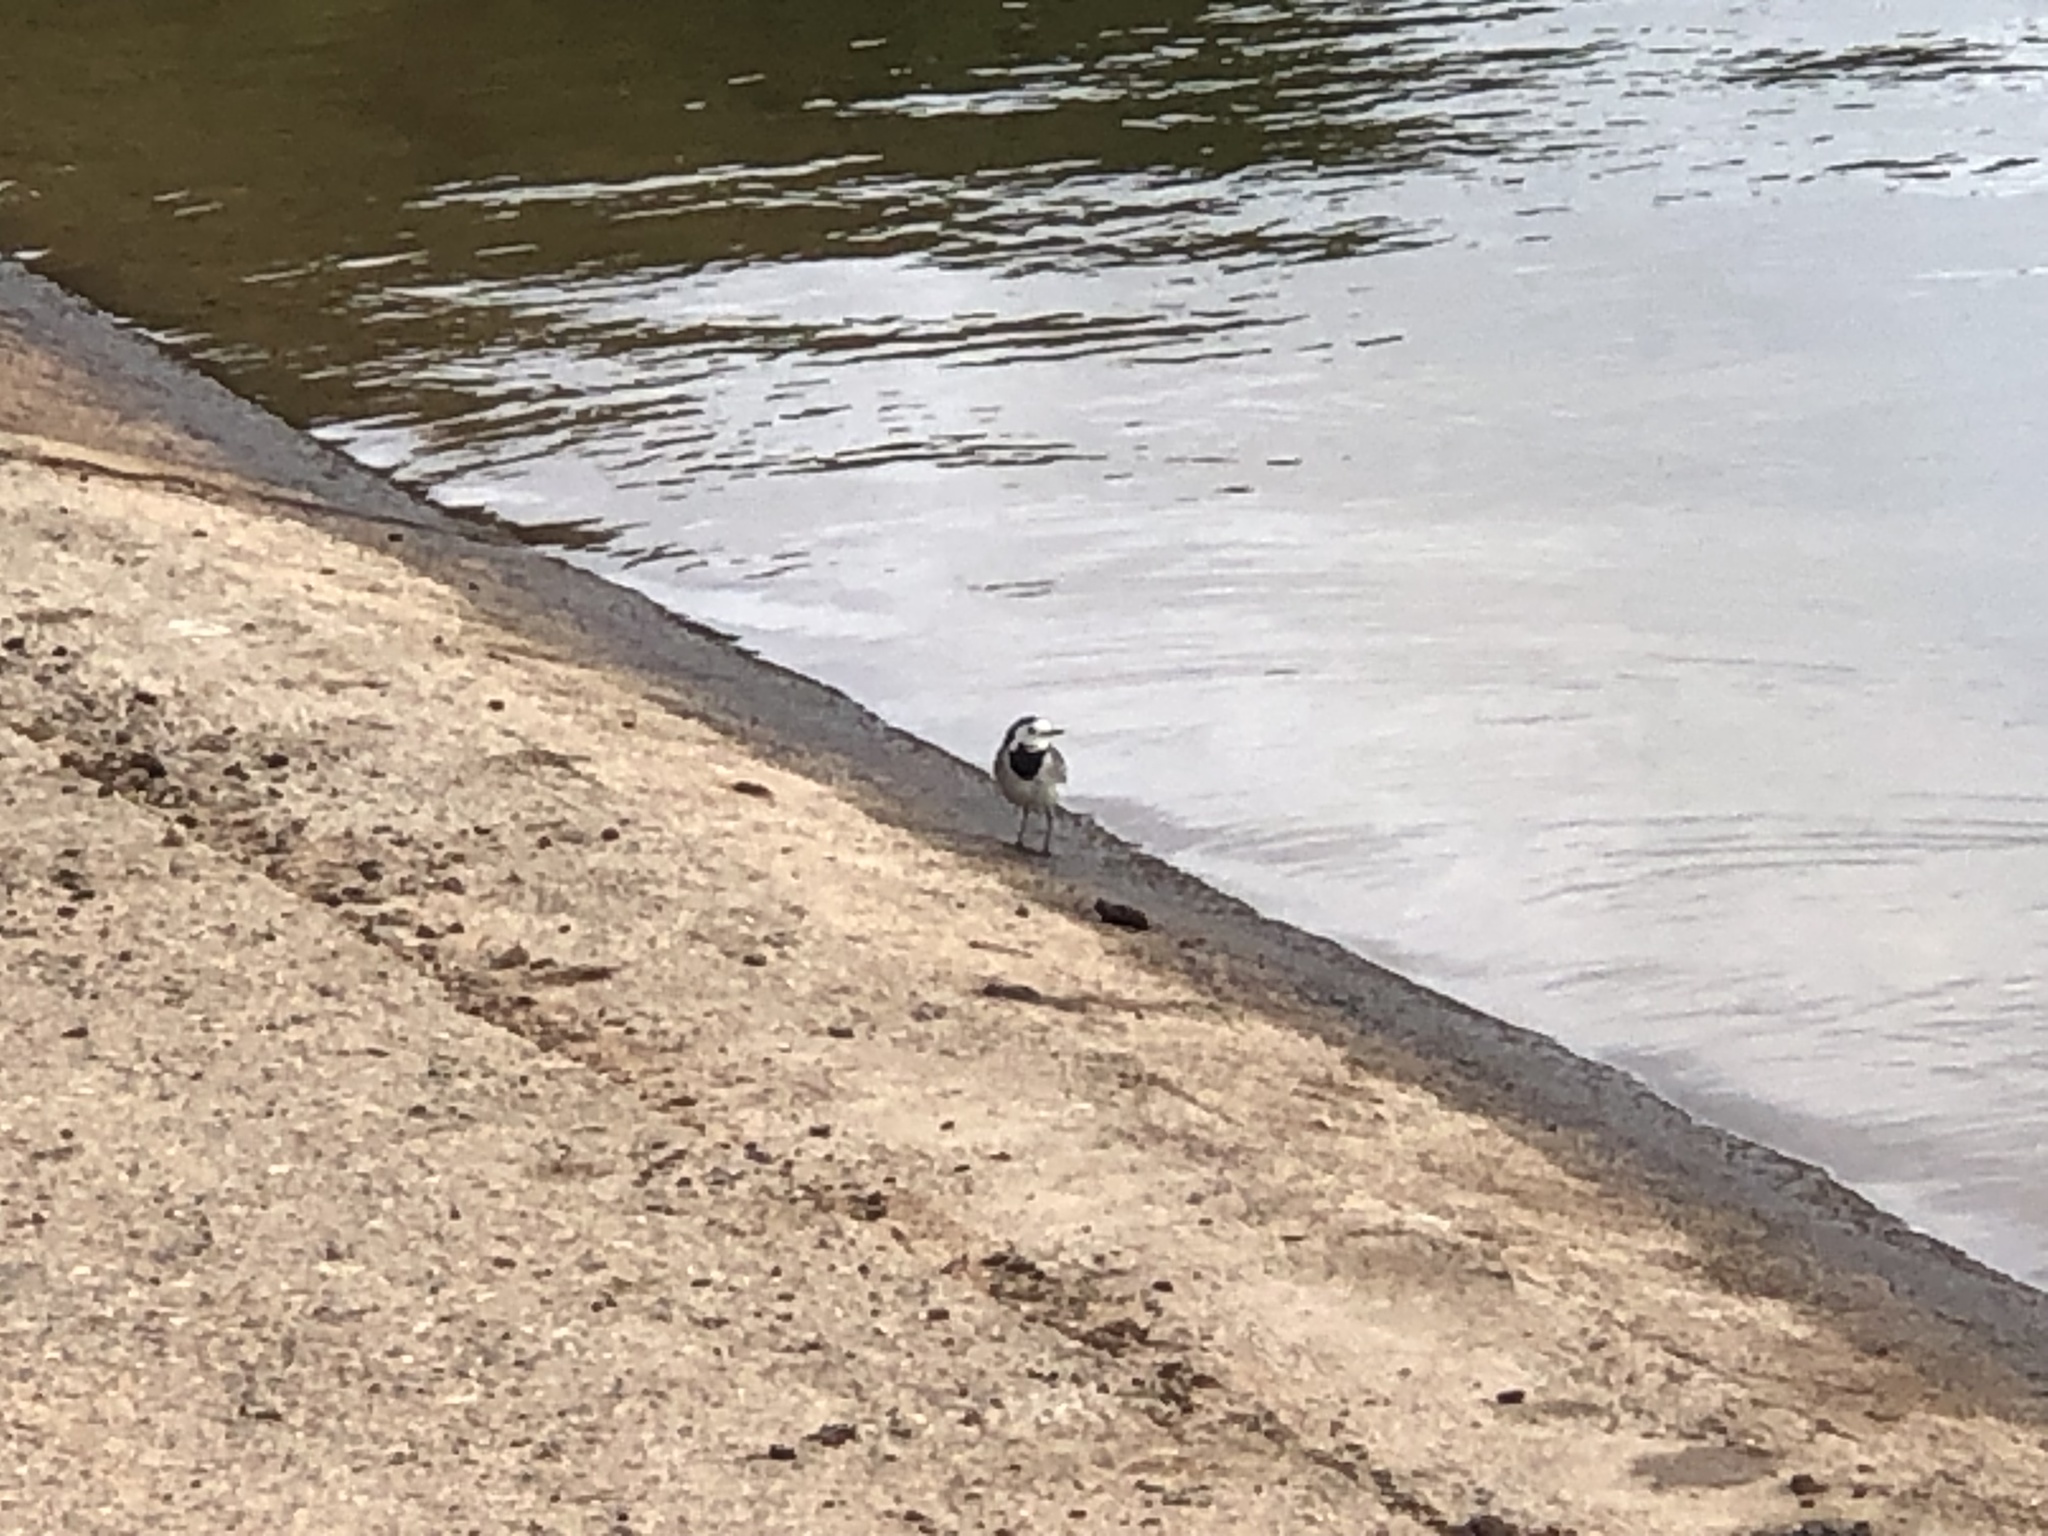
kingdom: Animalia
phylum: Chordata
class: Aves
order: Passeriformes
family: Motacillidae
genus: Motacilla
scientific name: Motacilla alba
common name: White wagtail
